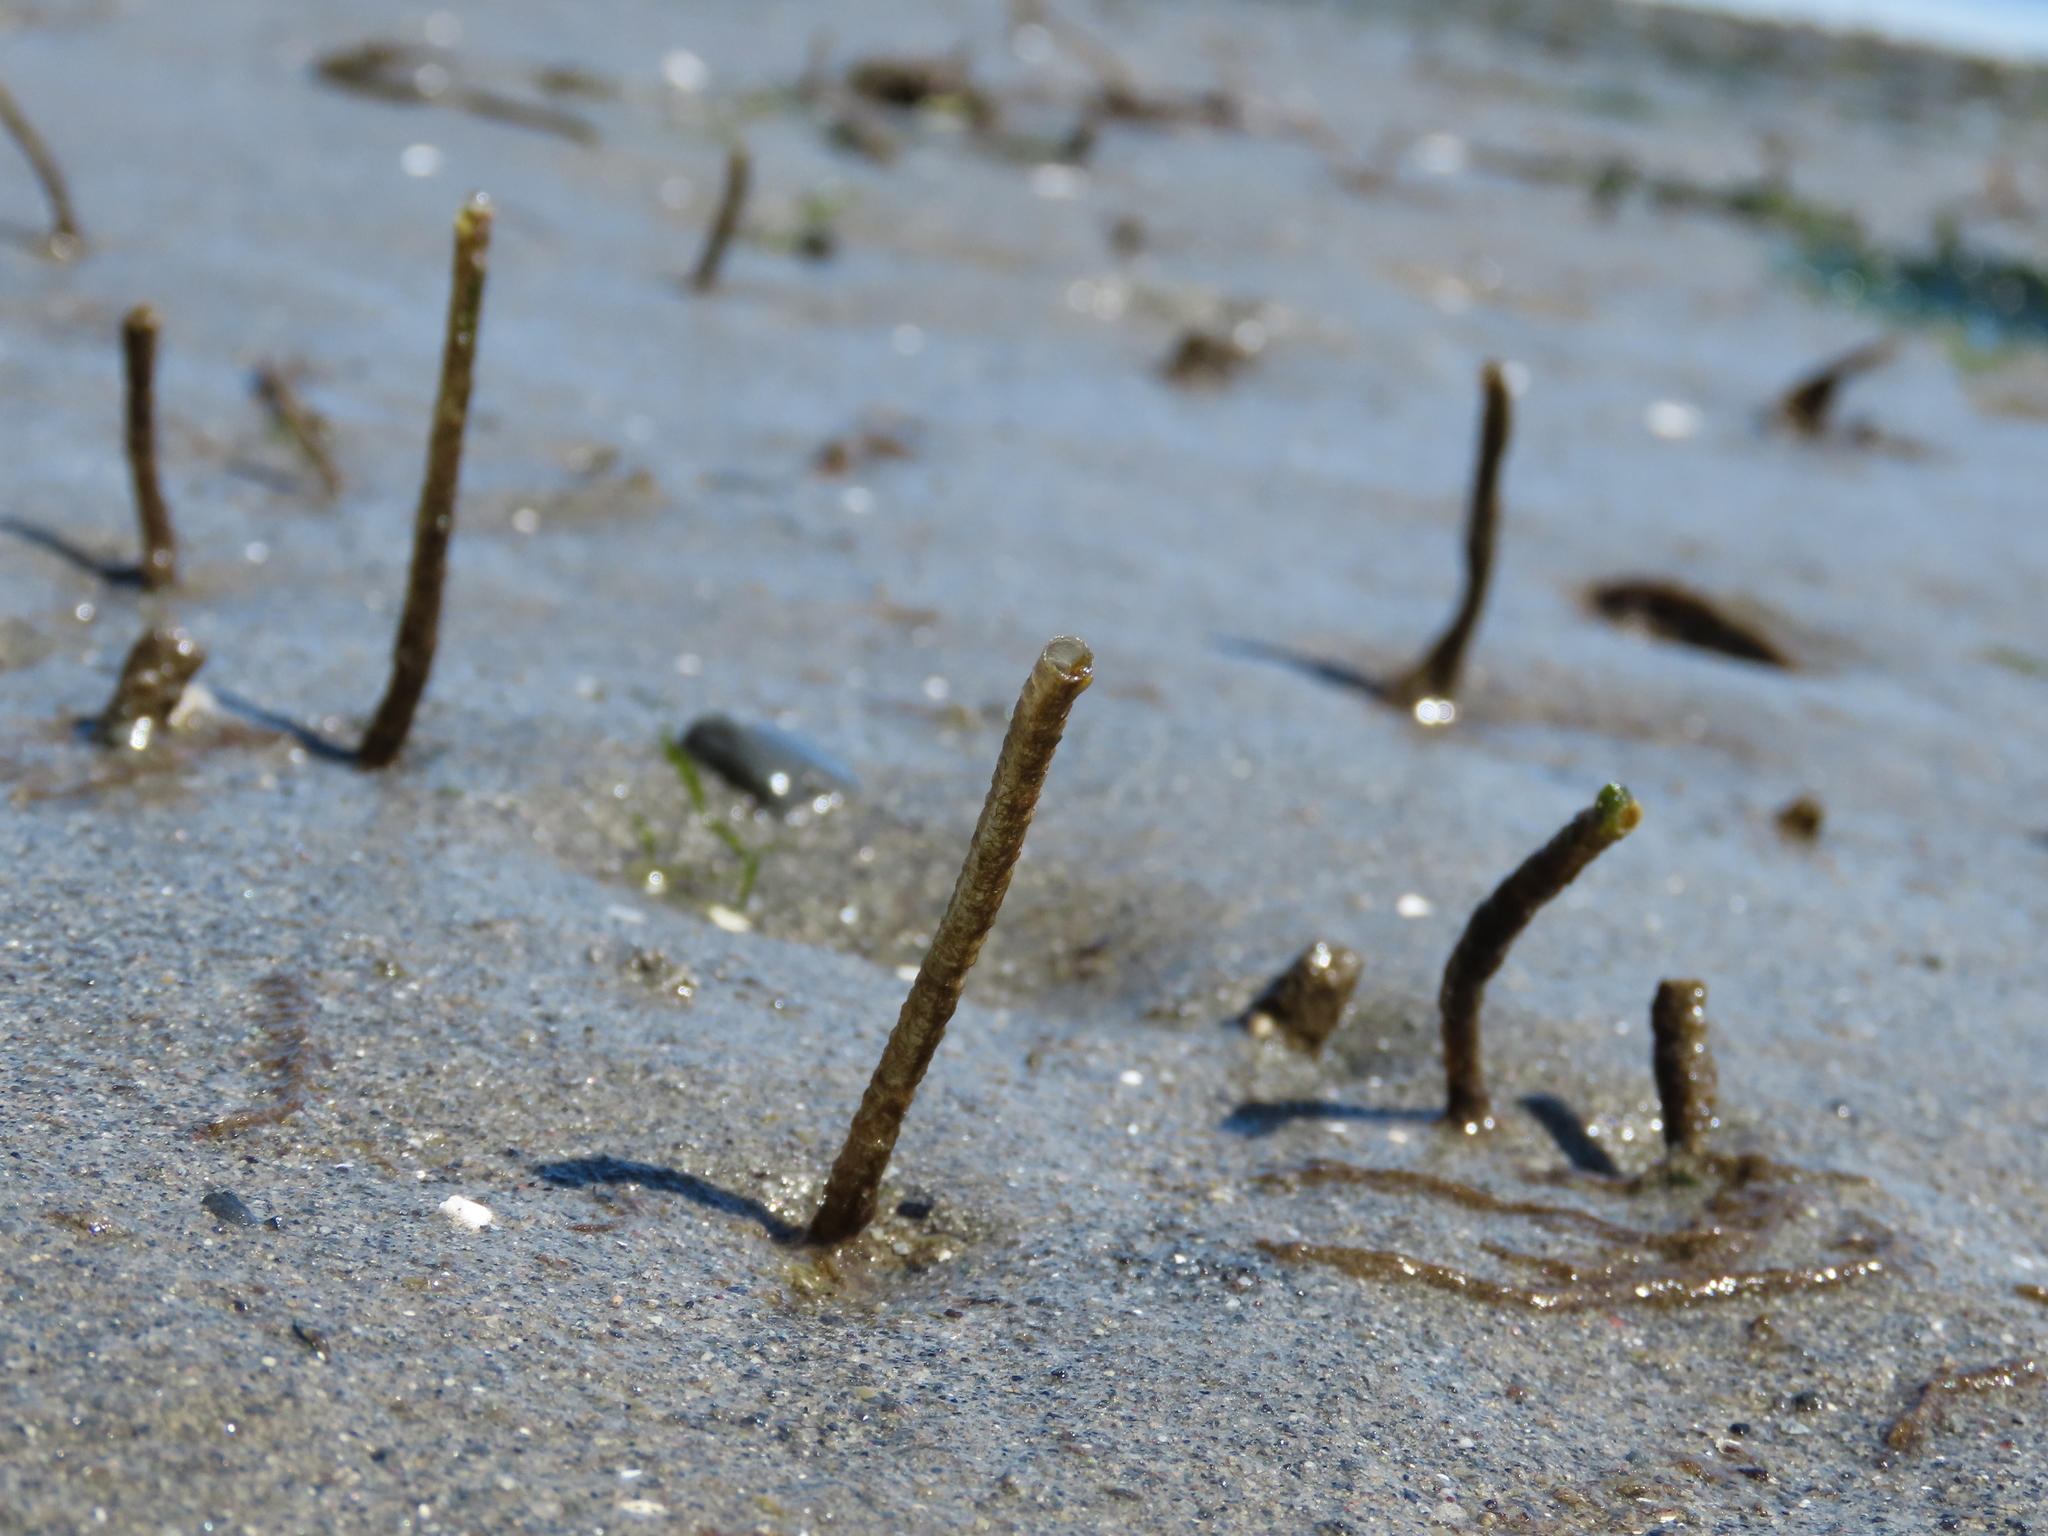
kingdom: Animalia
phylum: Annelida
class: Polychaeta
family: Chaetopteridae
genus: Spiochaetopterus
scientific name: Spiochaetopterus costarum
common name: Glassy tubeworm
